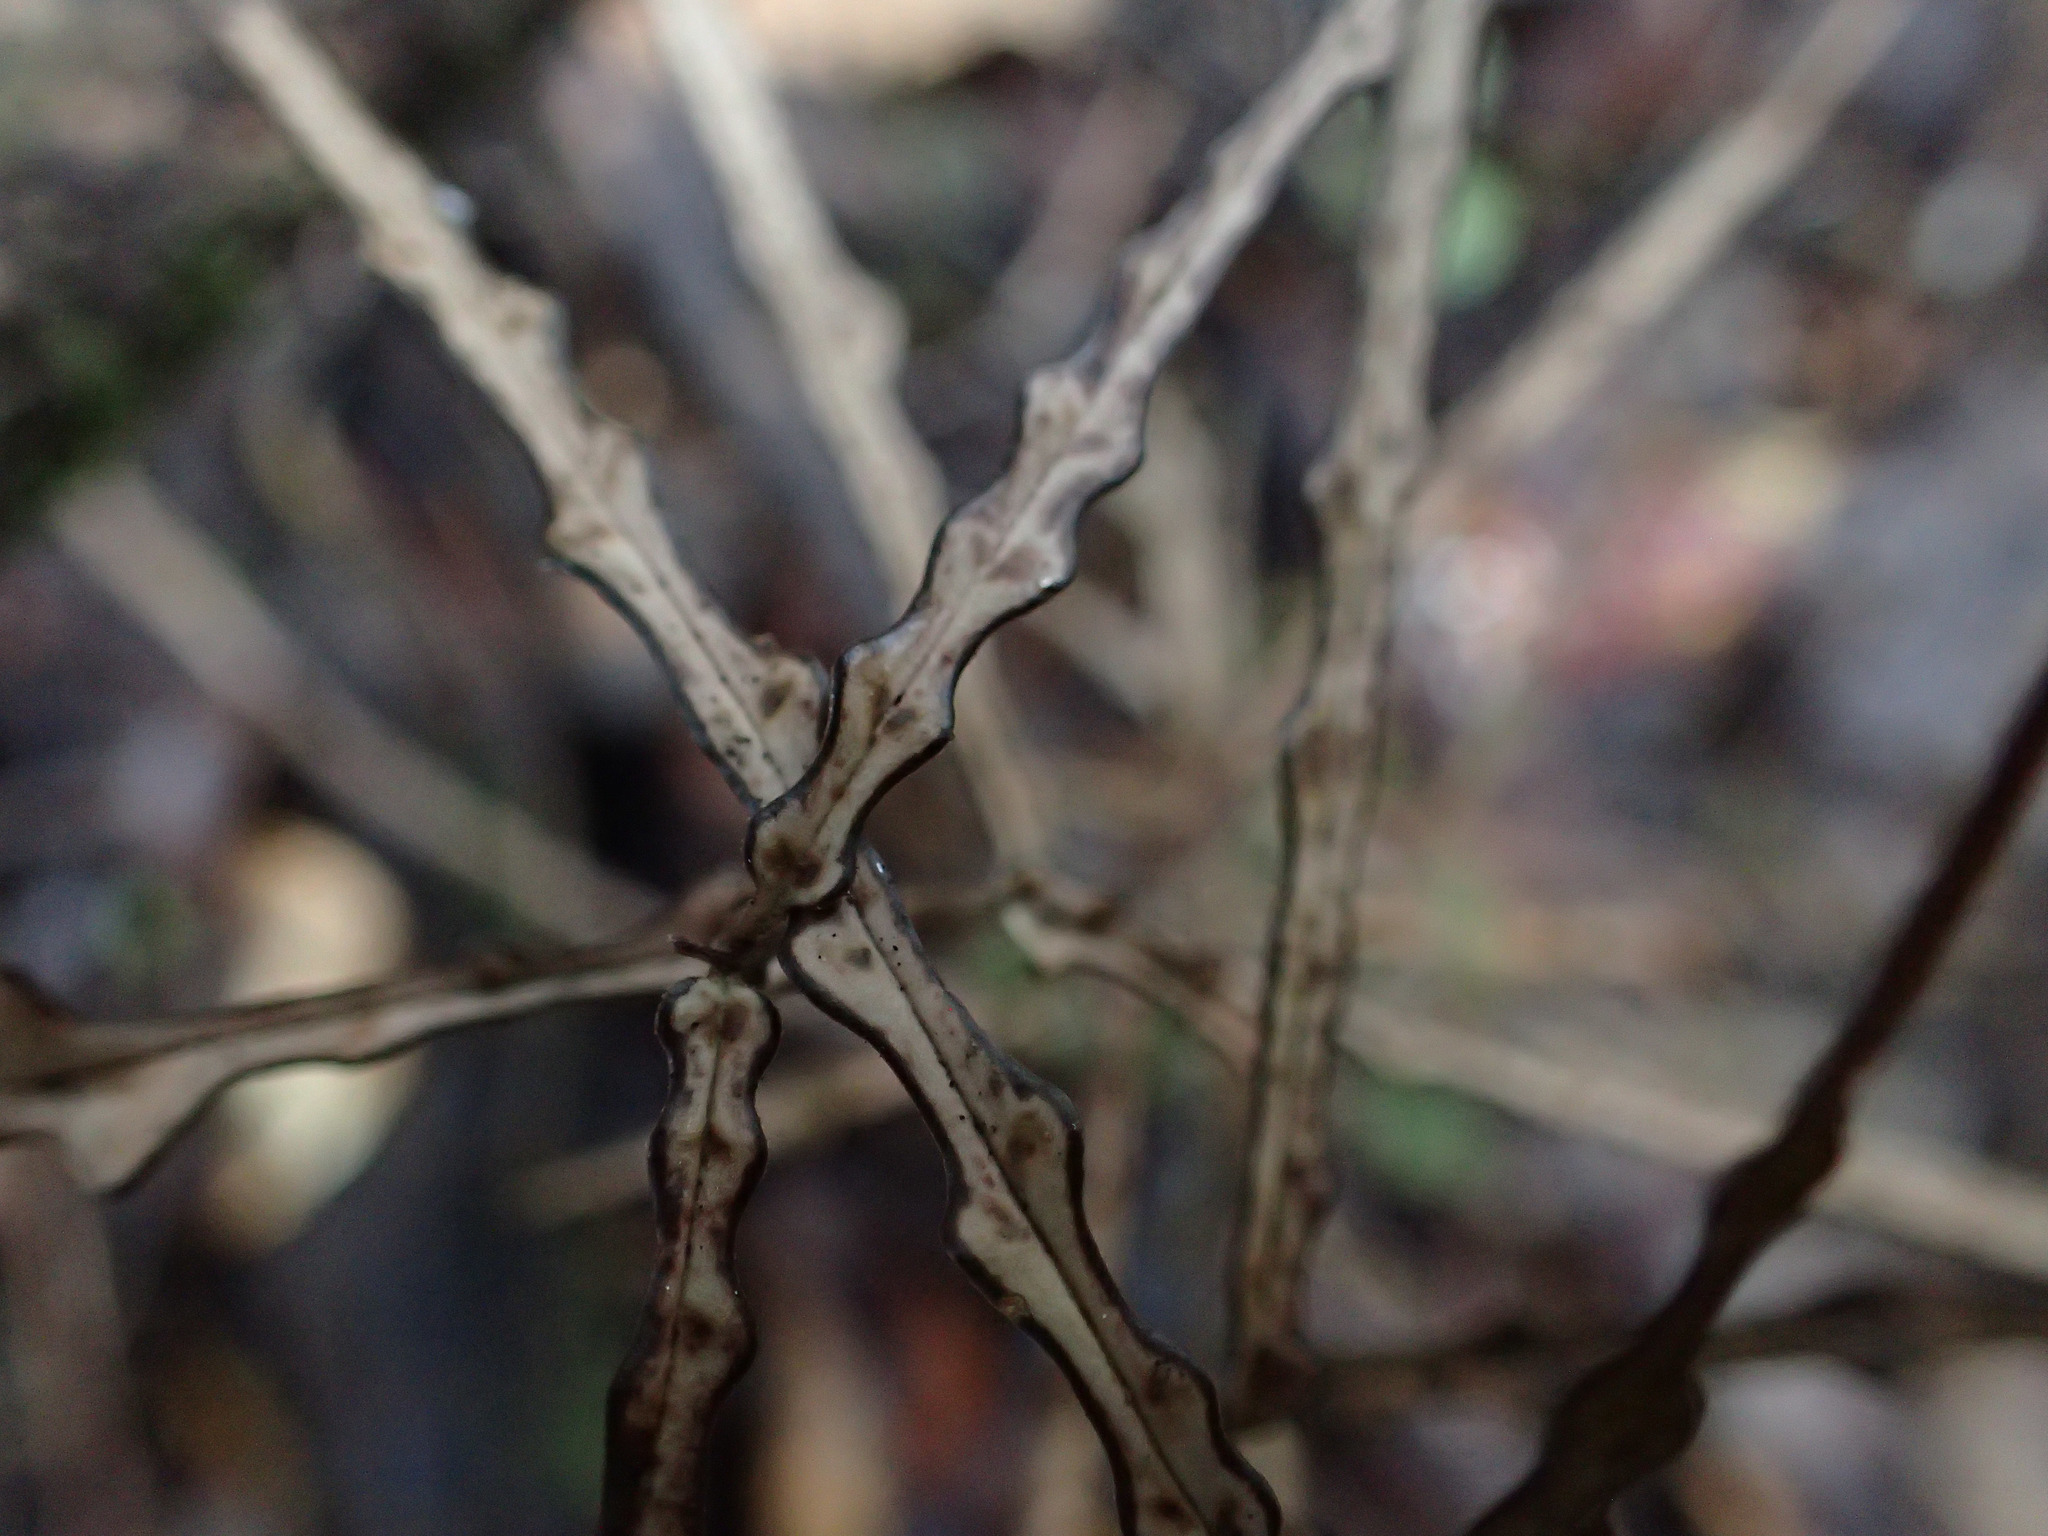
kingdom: Plantae
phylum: Tracheophyta
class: Magnoliopsida
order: Gentianales
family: Apocynaceae
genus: Parsonsia
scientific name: Parsonsia heterophylla
